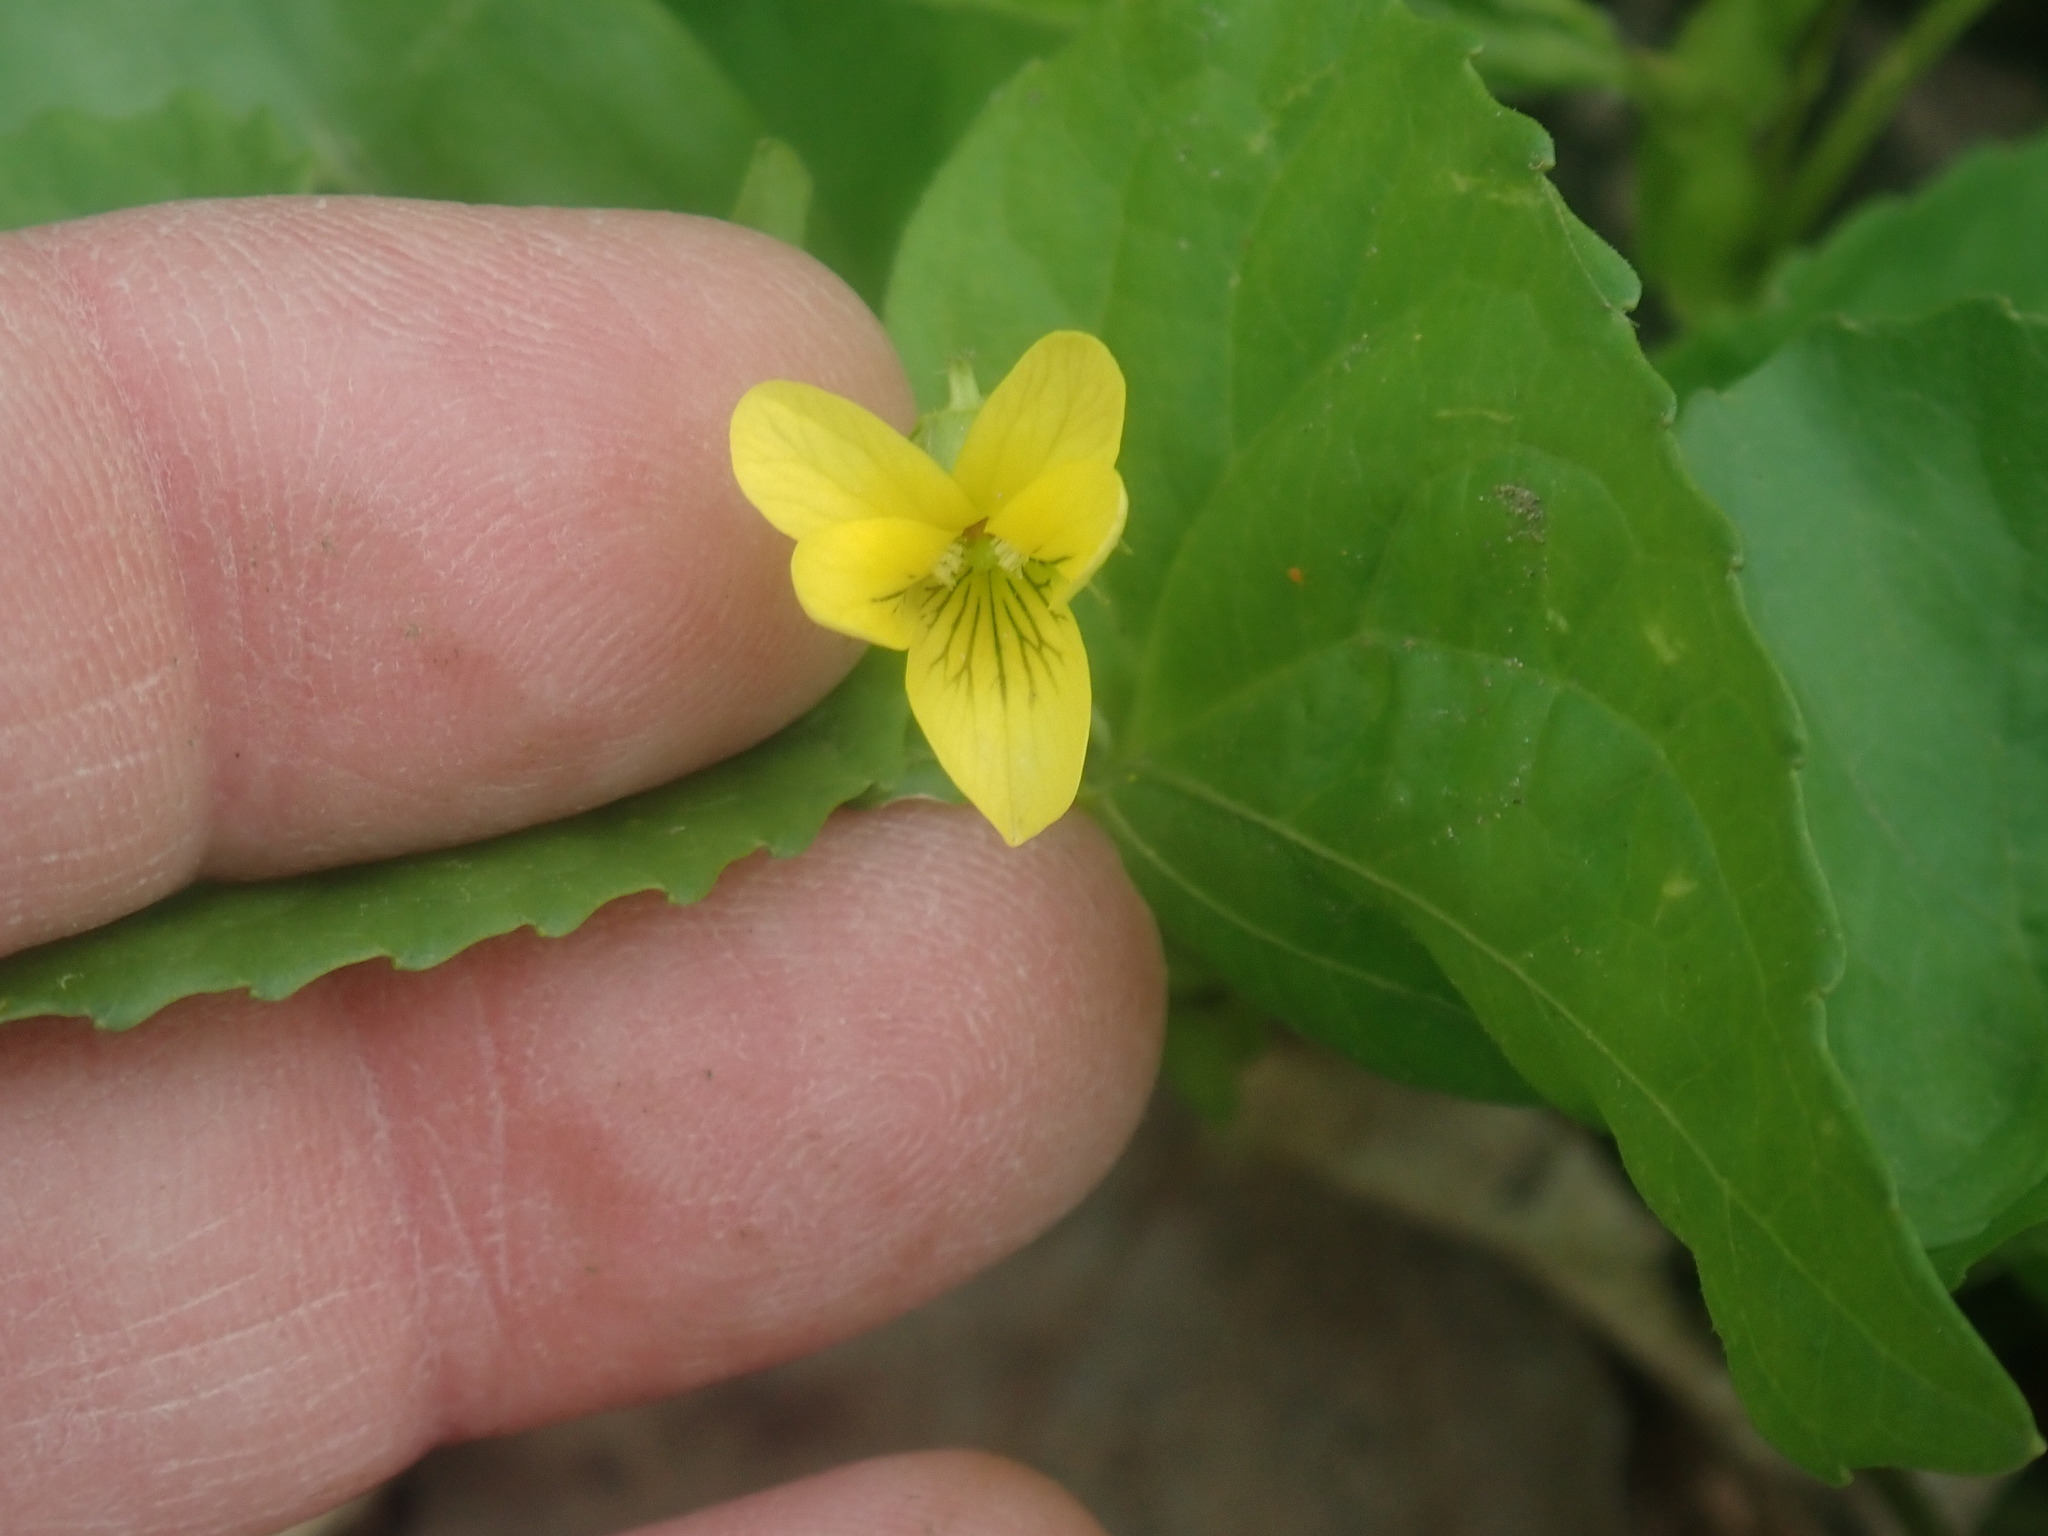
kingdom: Plantae
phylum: Tracheophyta
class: Magnoliopsida
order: Malpighiales
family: Violaceae
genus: Viola
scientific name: Viola eriocarpa
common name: Smooth yellow violet
